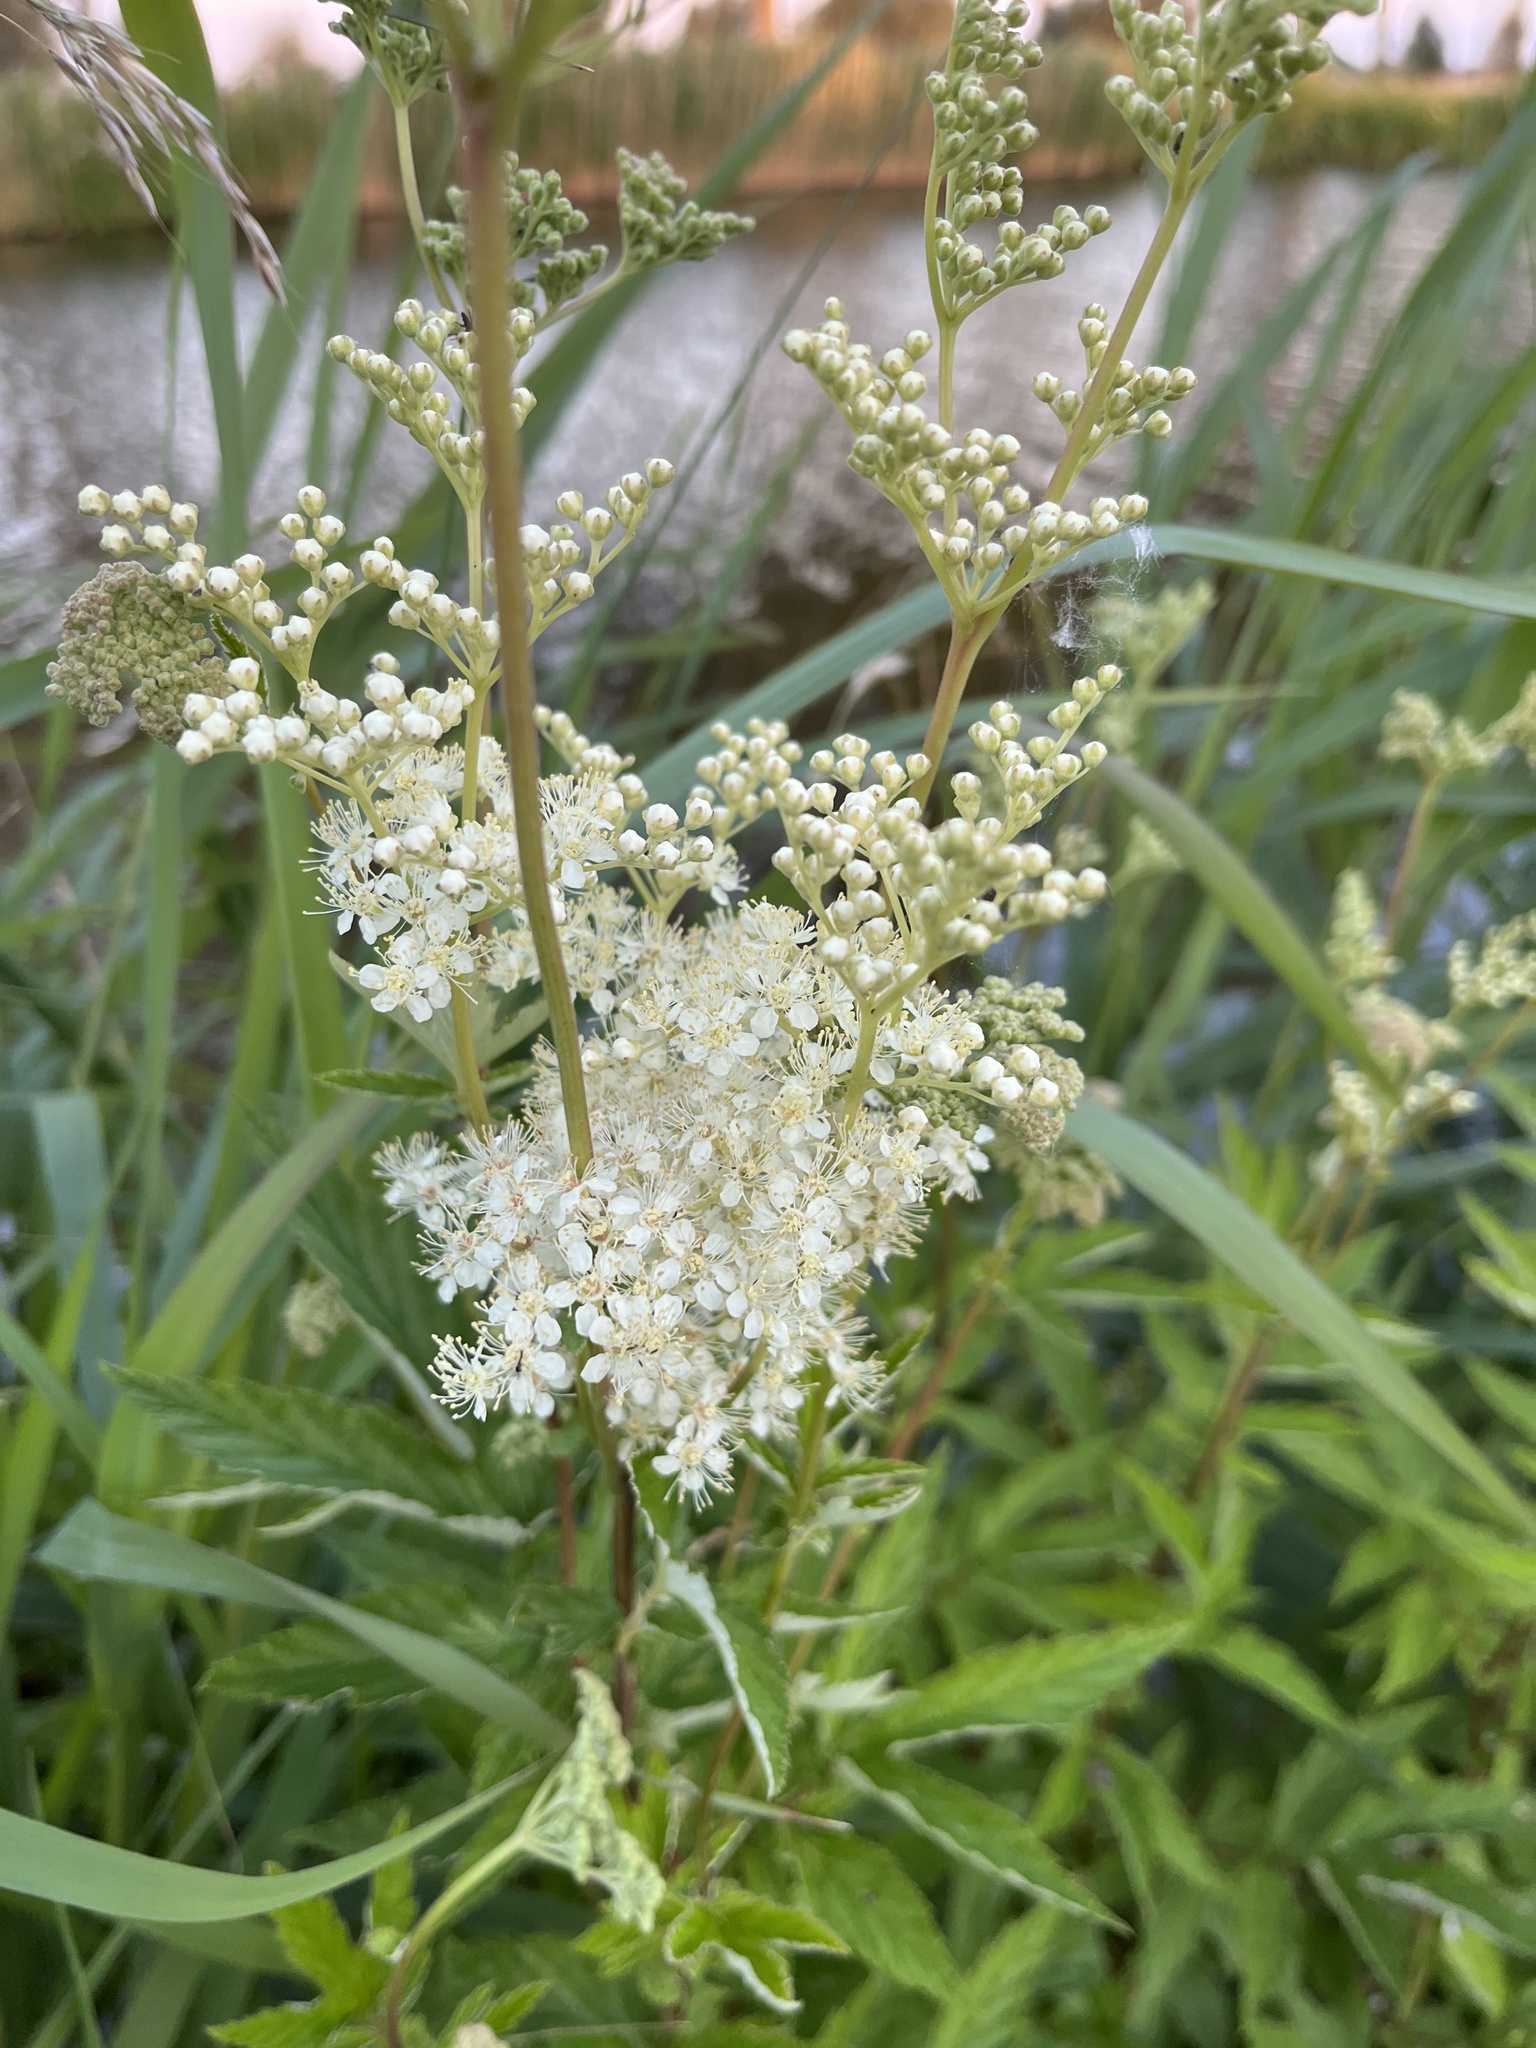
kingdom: Plantae
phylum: Tracheophyta
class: Magnoliopsida
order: Rosales
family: Rosaceae
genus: Filipendula
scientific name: Filipendula ulmaria
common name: Meadowsweet
